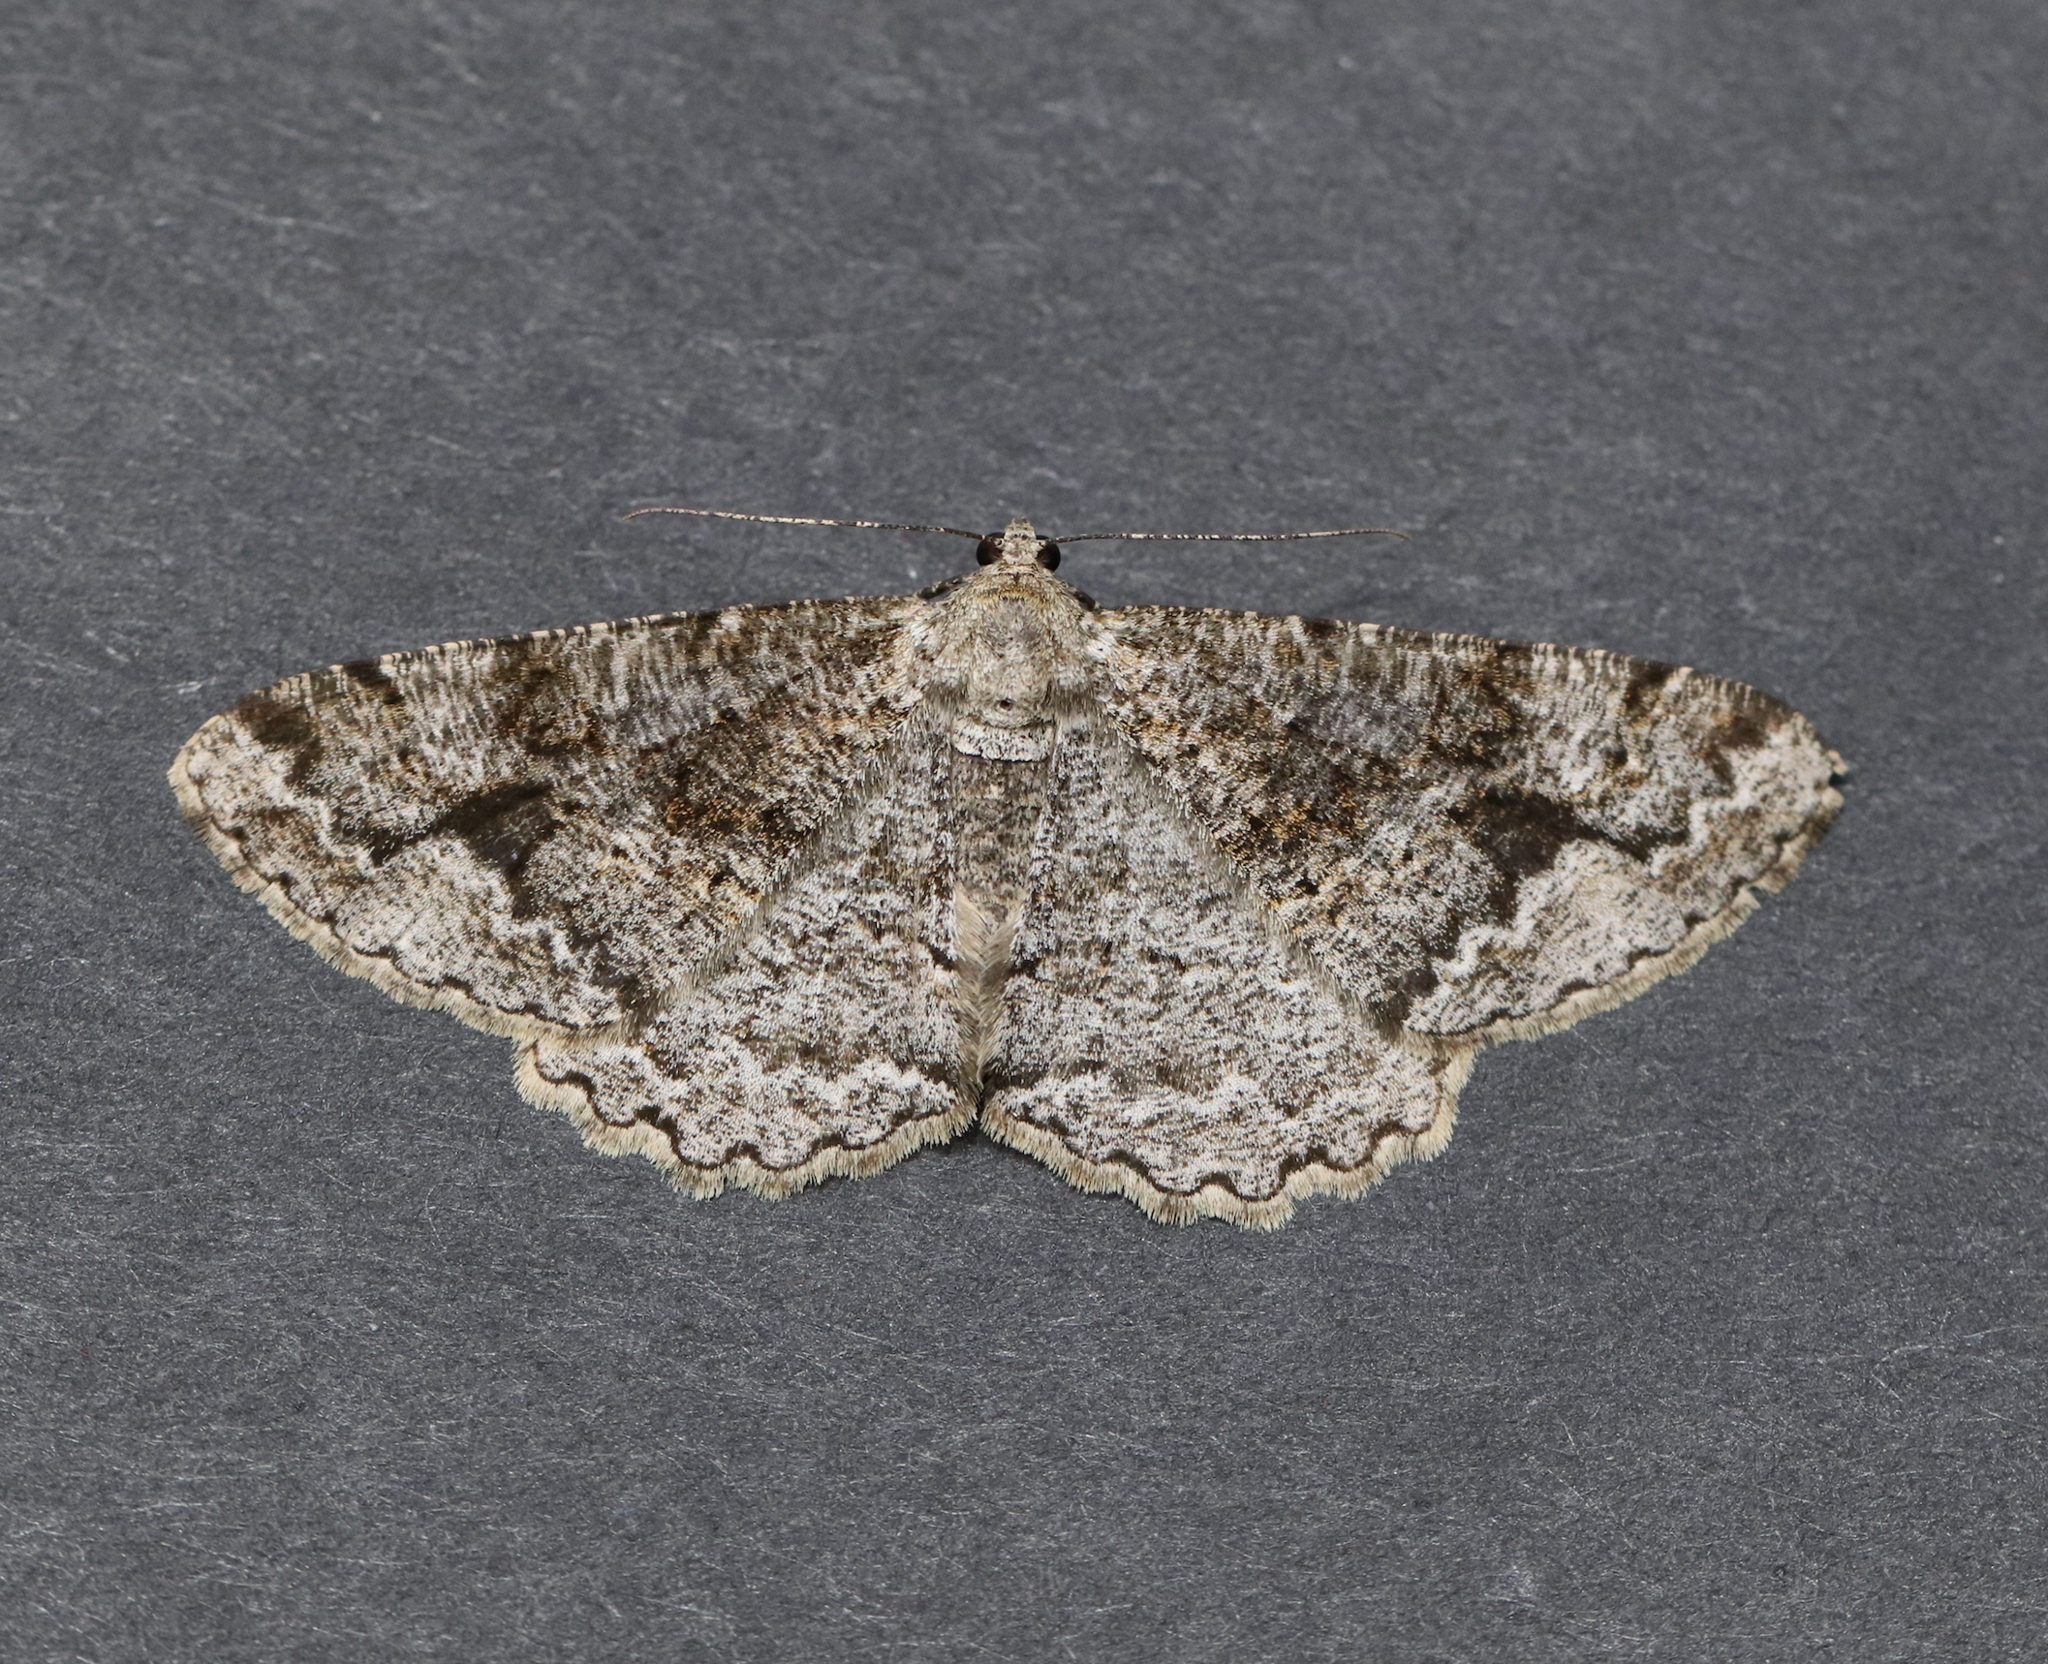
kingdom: Animalia
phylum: Arthropoda
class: Insecta
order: Lepidoptera
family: Geometridae
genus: Alcis
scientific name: Alcis repandata
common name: Mottled beauty
